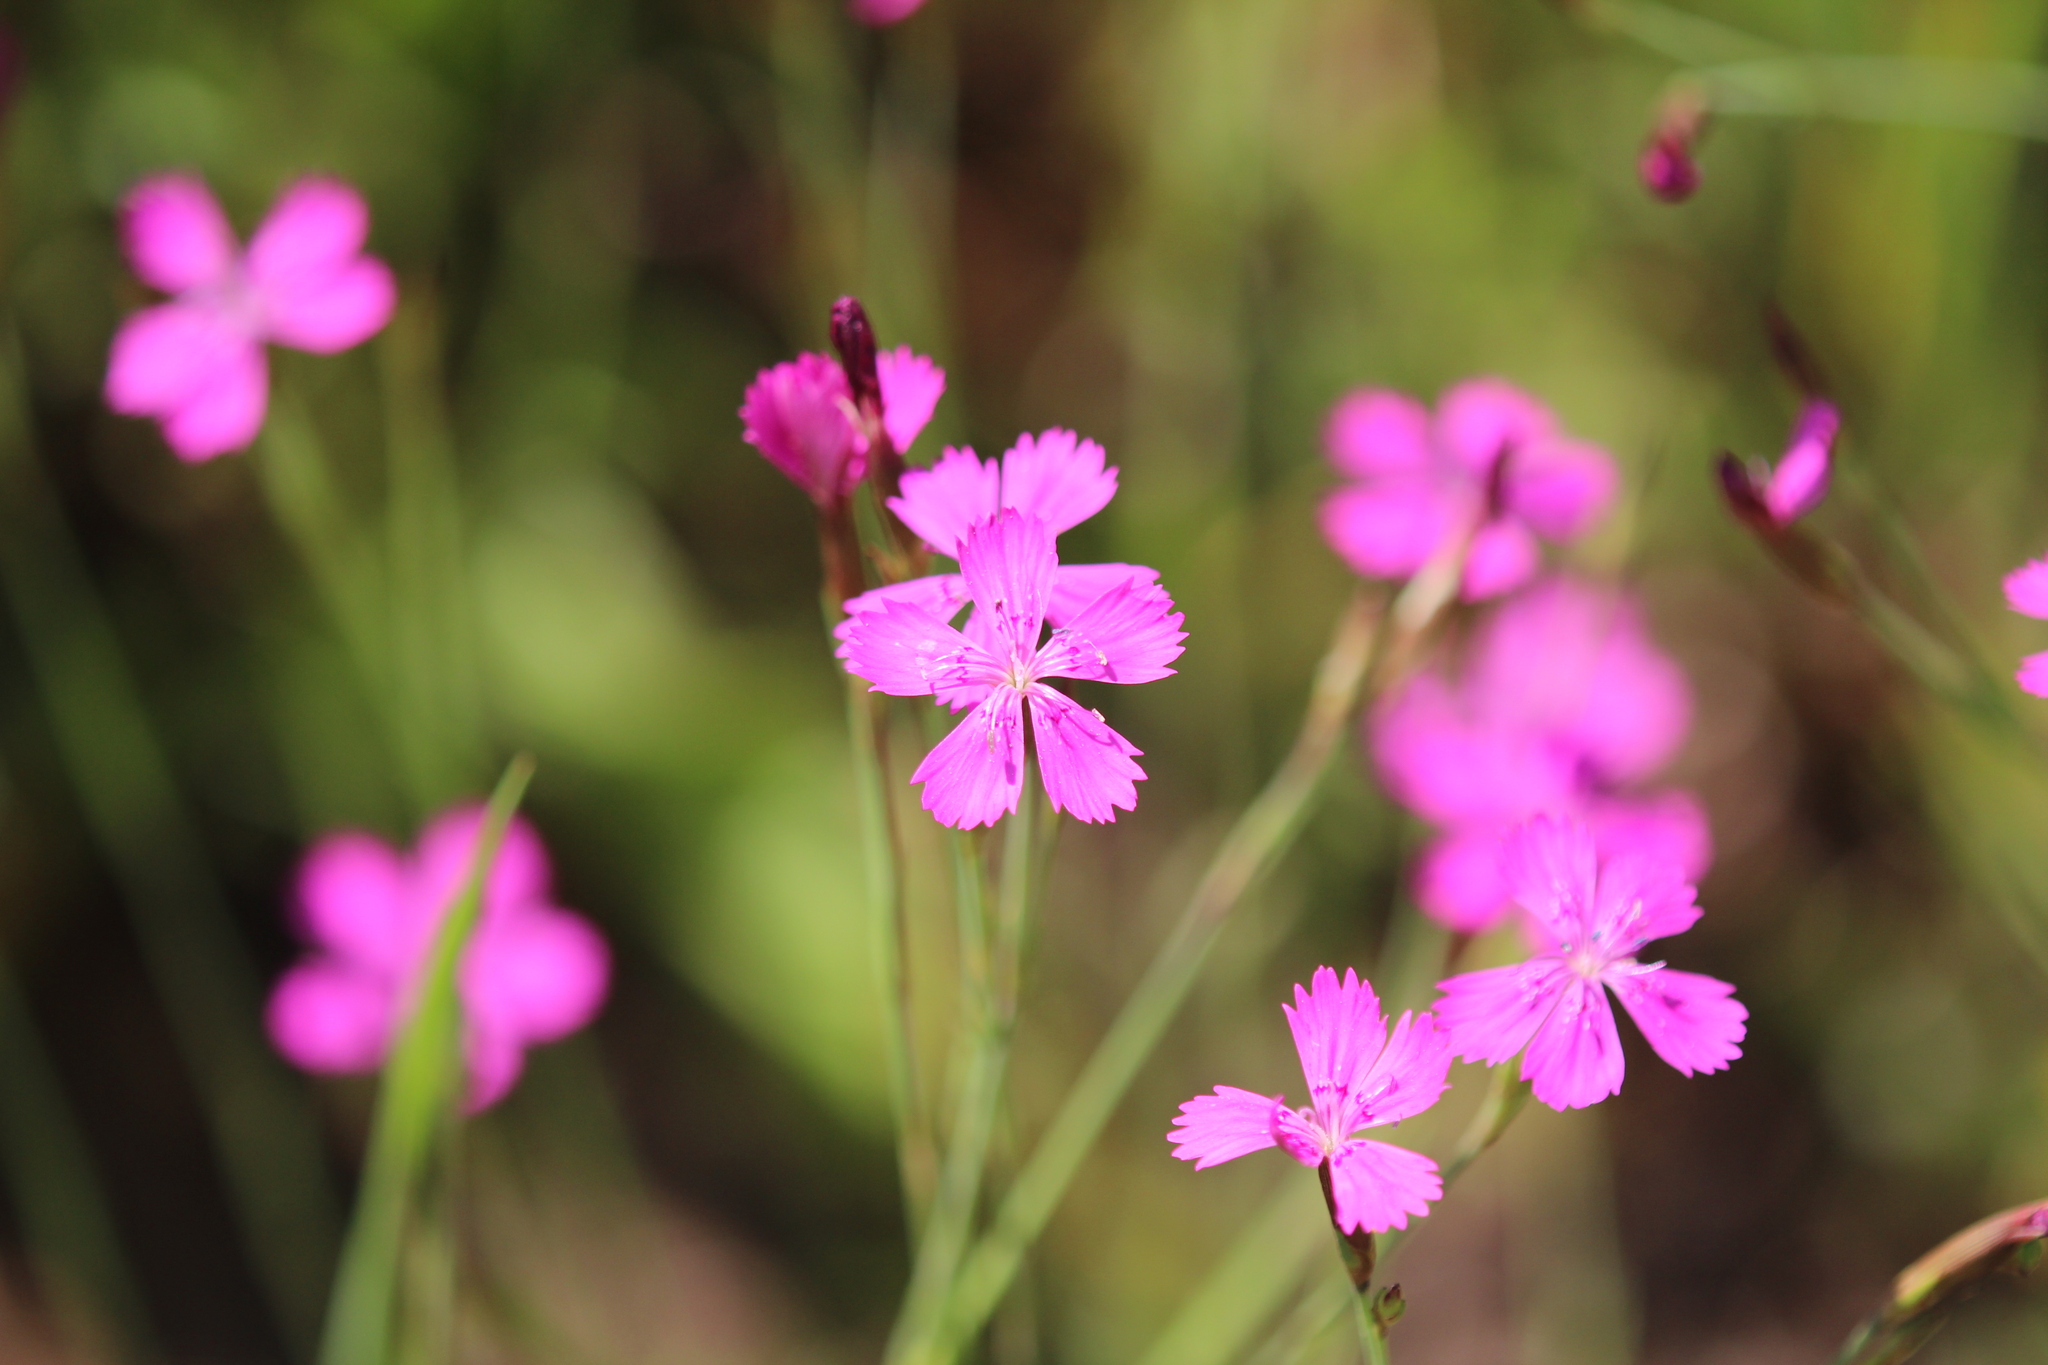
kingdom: Plantae
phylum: Tracheophyta
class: Magnoliopsida
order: Caryophyllales
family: Caryophyllaceae
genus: Dianthus
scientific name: Dianthus deltoides
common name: Maiden pink
